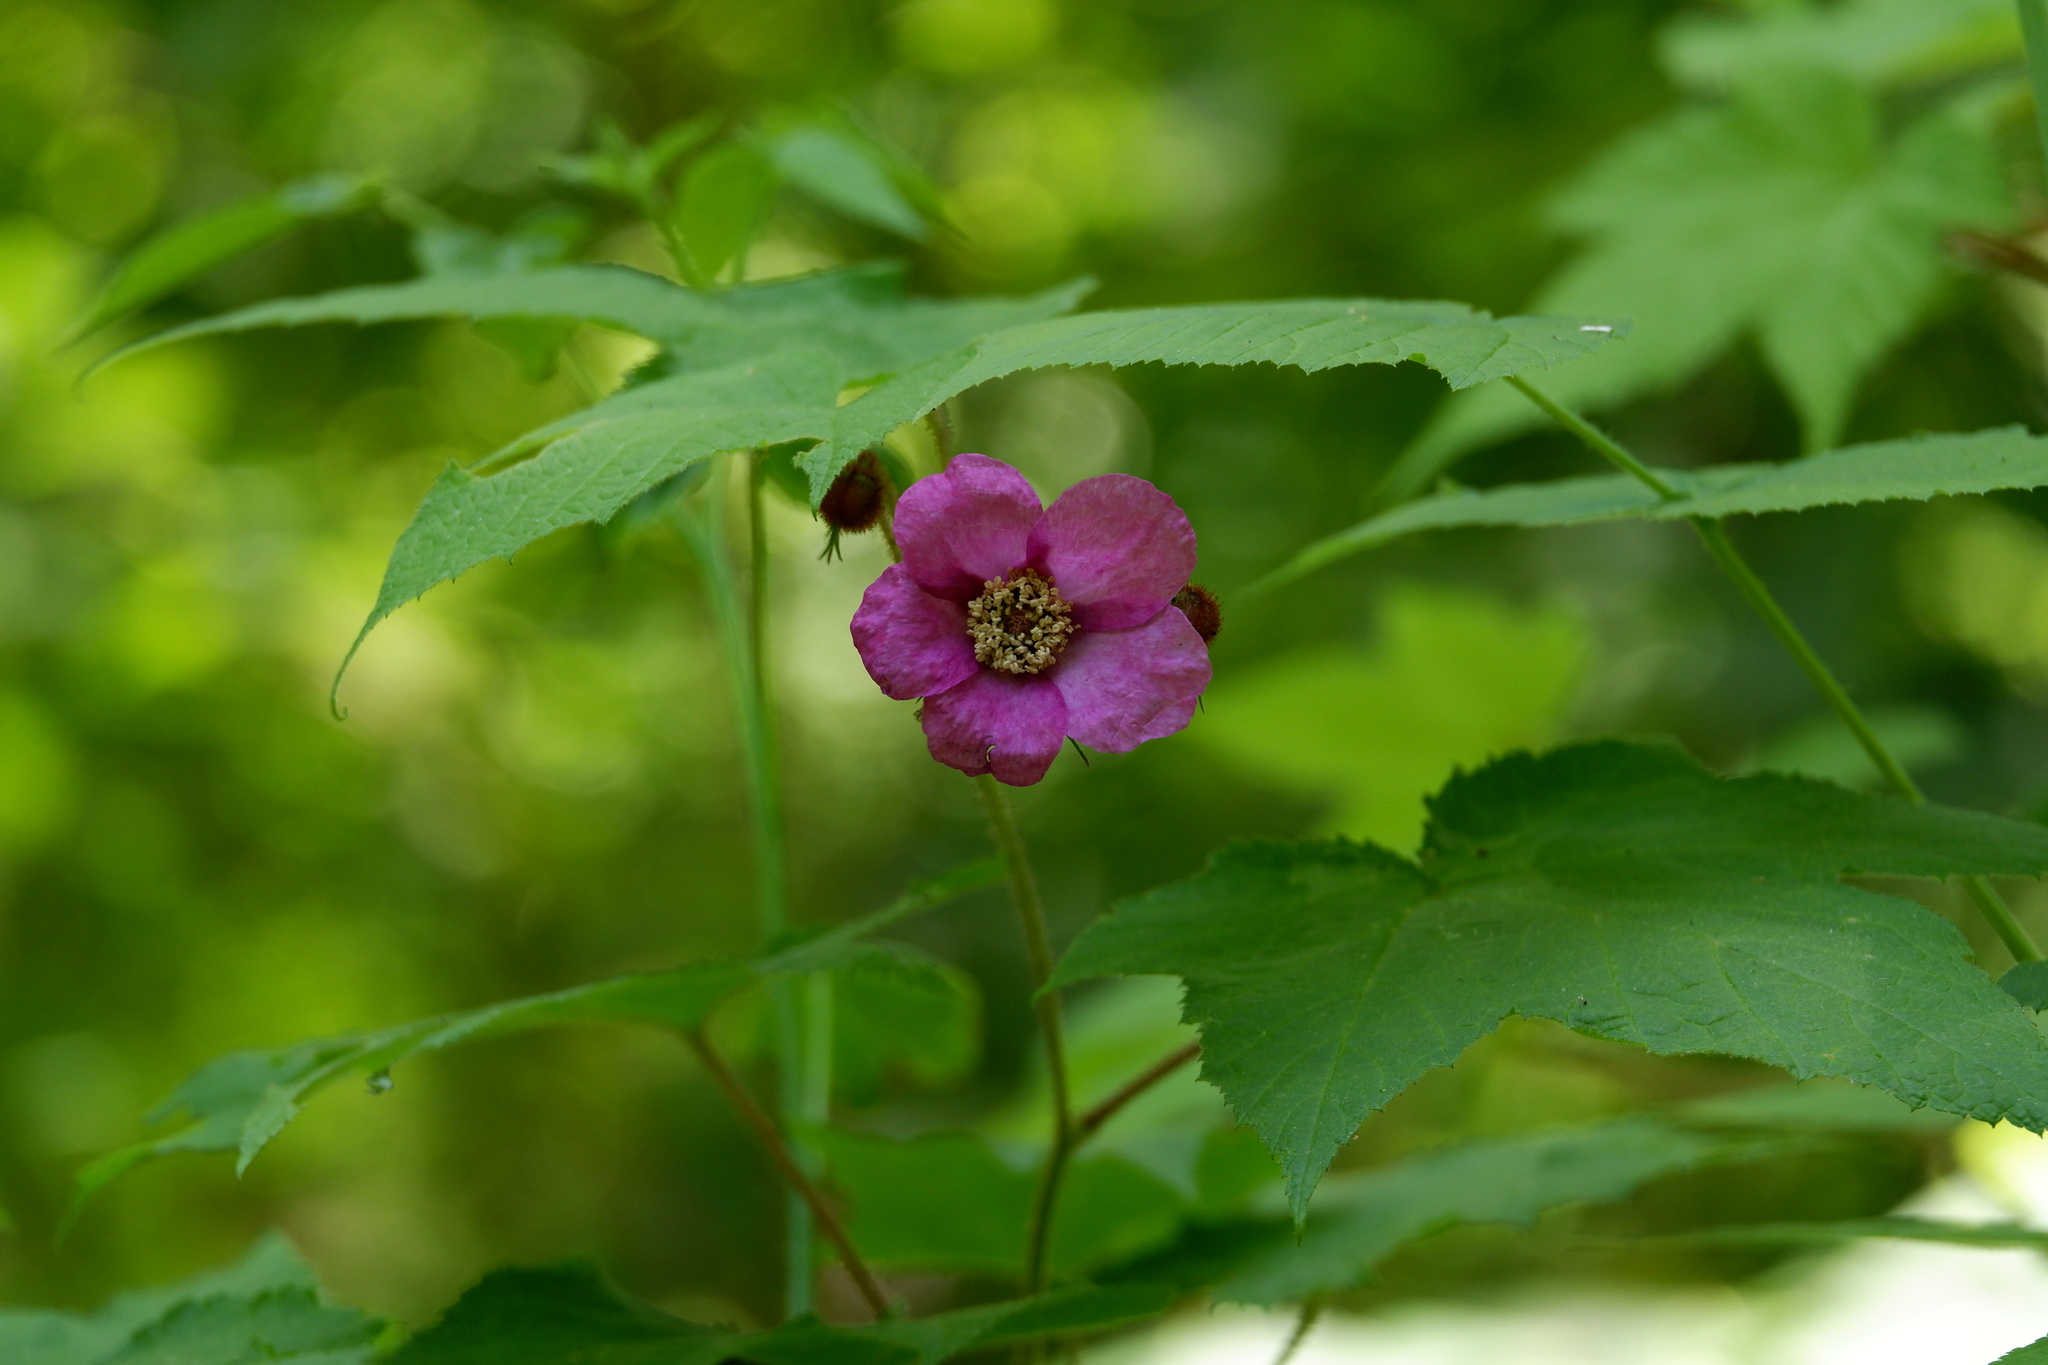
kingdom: Plantae
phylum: Tracheophyta
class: Magnoliopsida
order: Rosales
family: Rosaceae
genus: Rubus
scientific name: Rubus odoratus
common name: Purple-flowered raspberry
